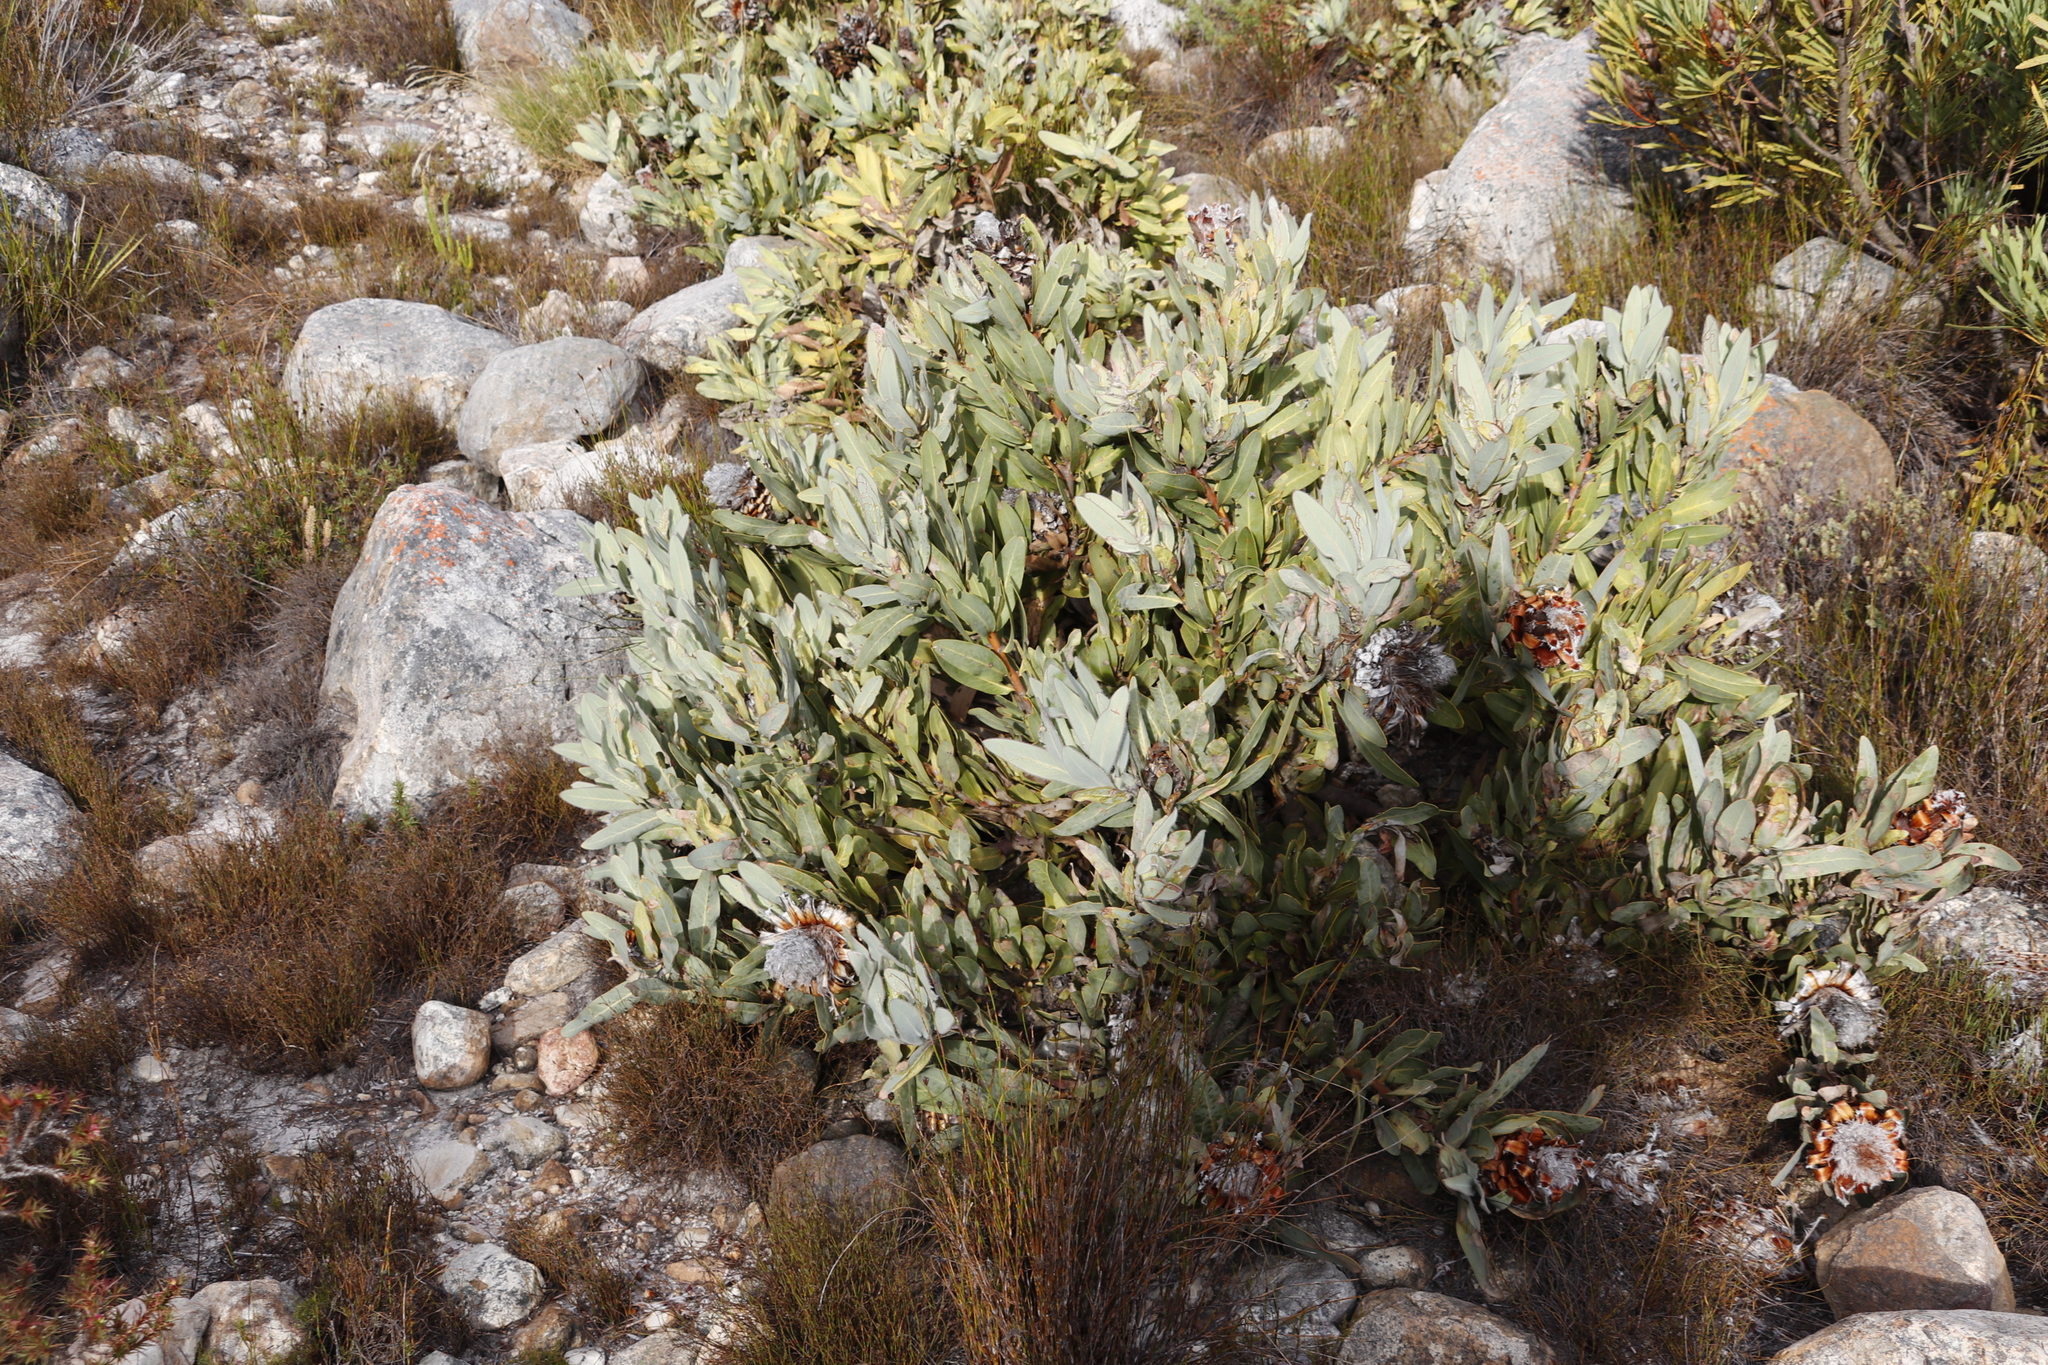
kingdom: Plantae
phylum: Tracheophyta
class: Magnoliopsida
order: Proteales
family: Proteaceae
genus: Protea
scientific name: Protea magnifica
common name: Bearded sugarbush
